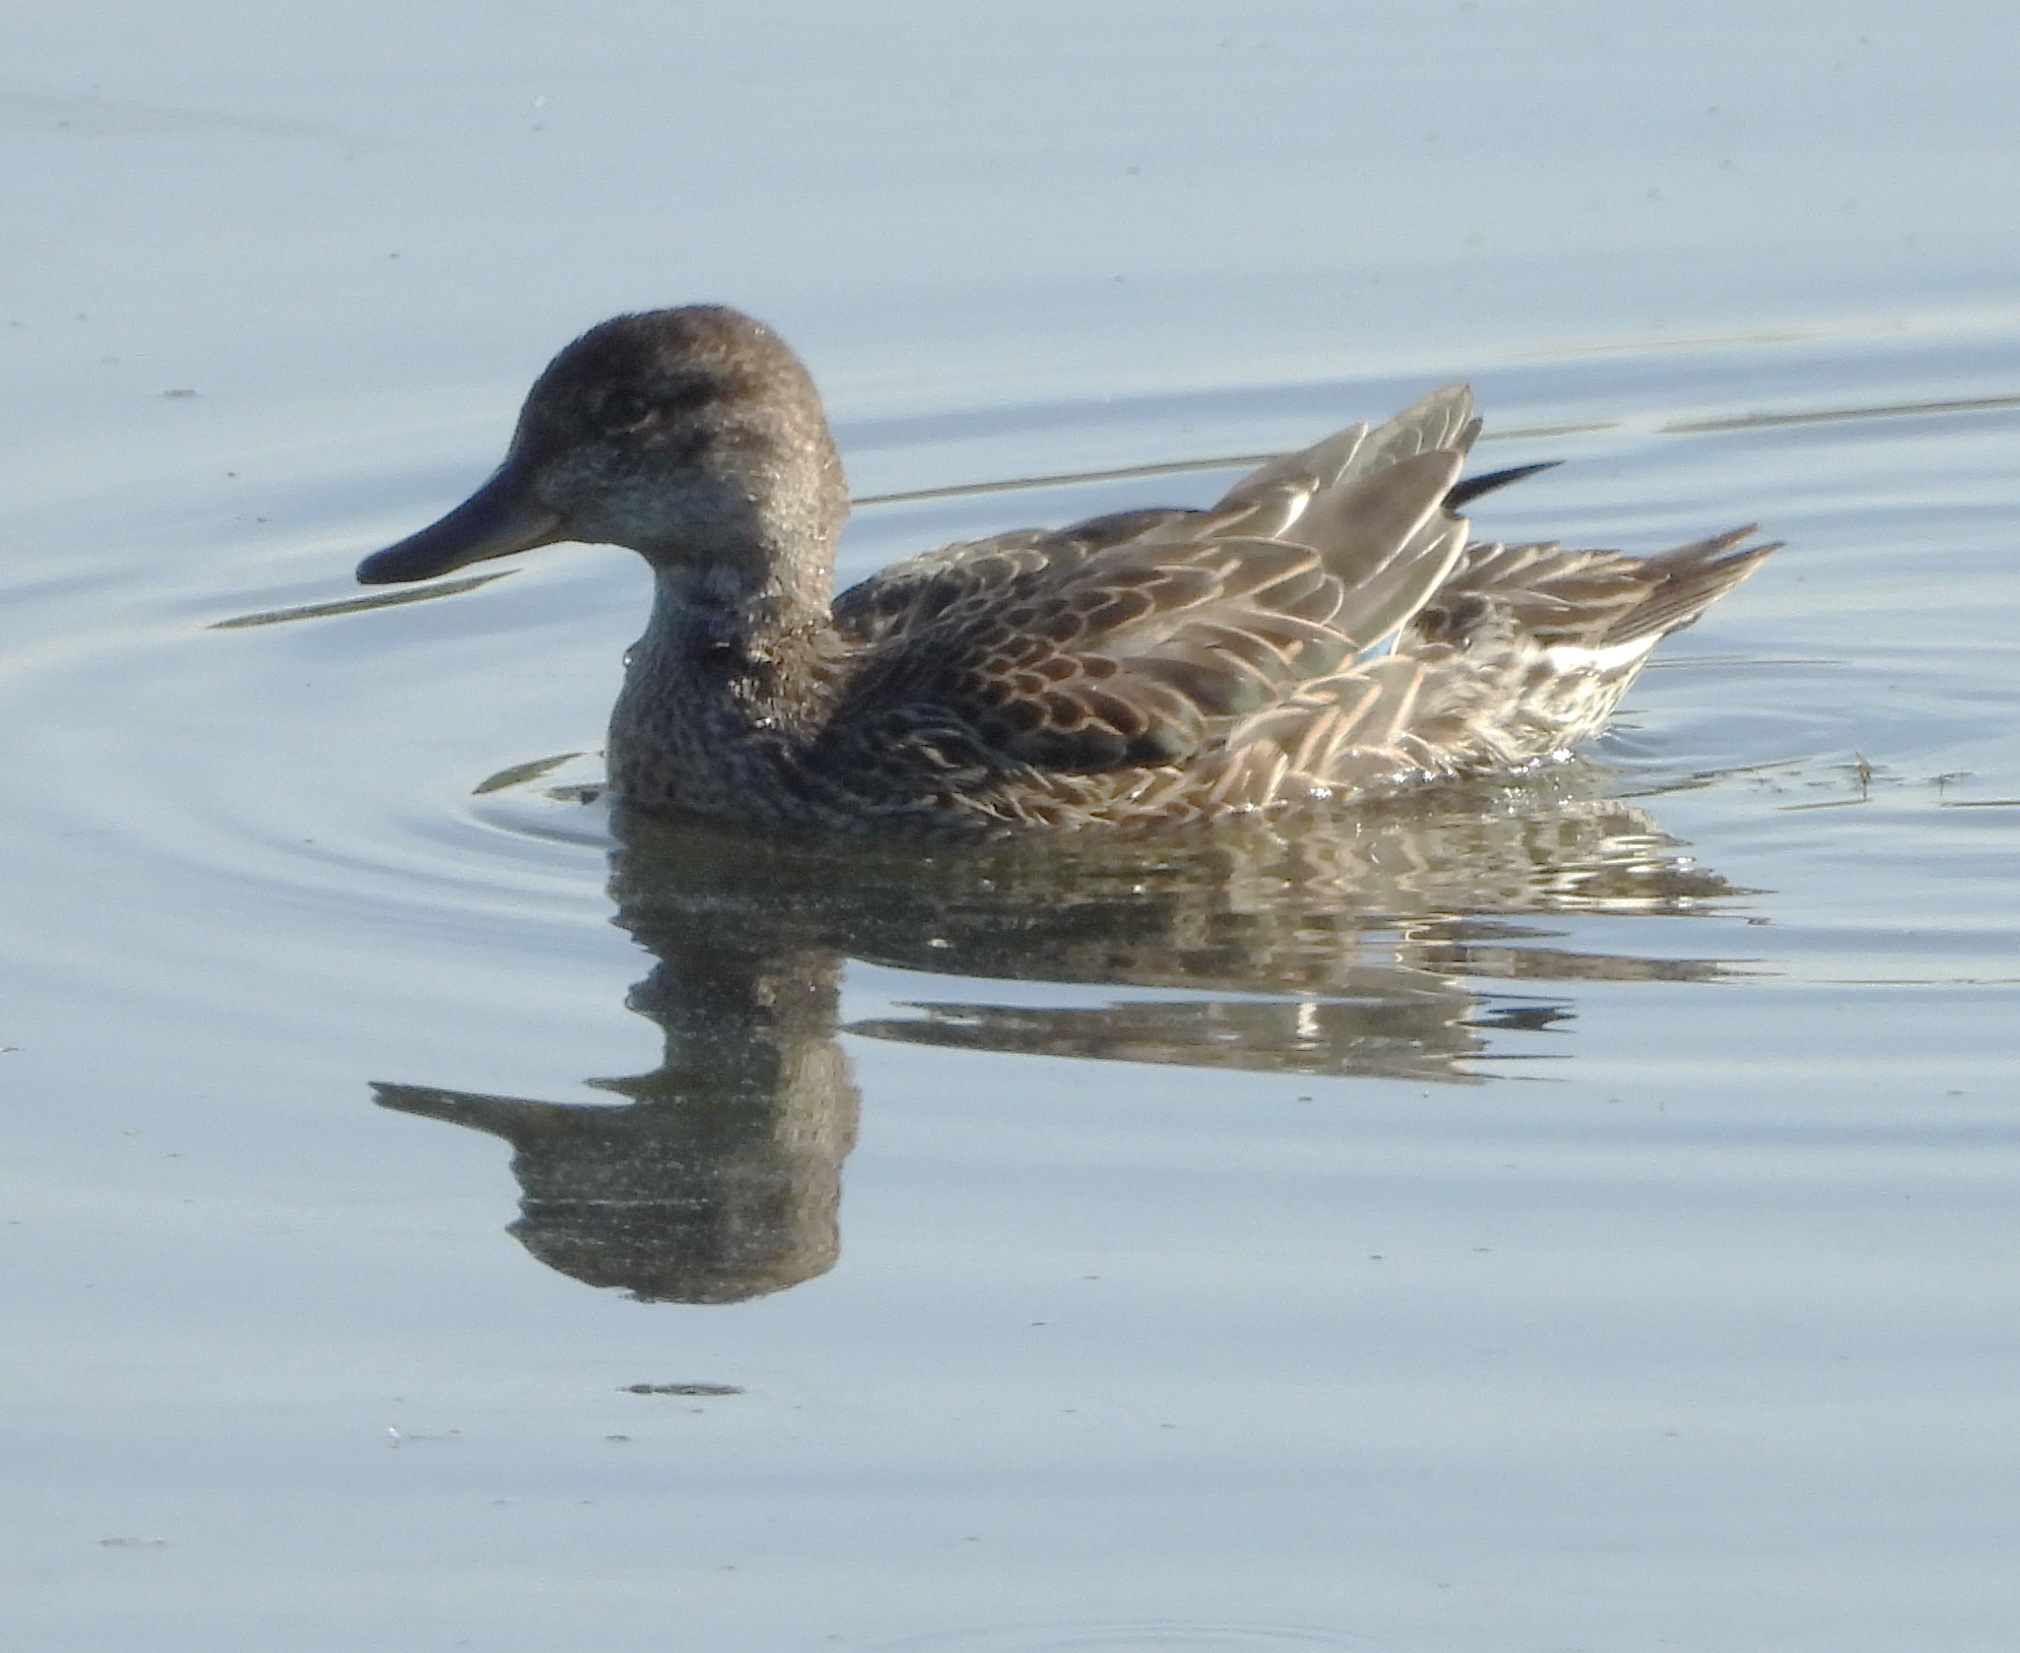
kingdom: Animalia
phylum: Chordata
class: Aves
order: Anseriformes
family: Anatidae
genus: Anas
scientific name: Anas crecca
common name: Eurasian teal
